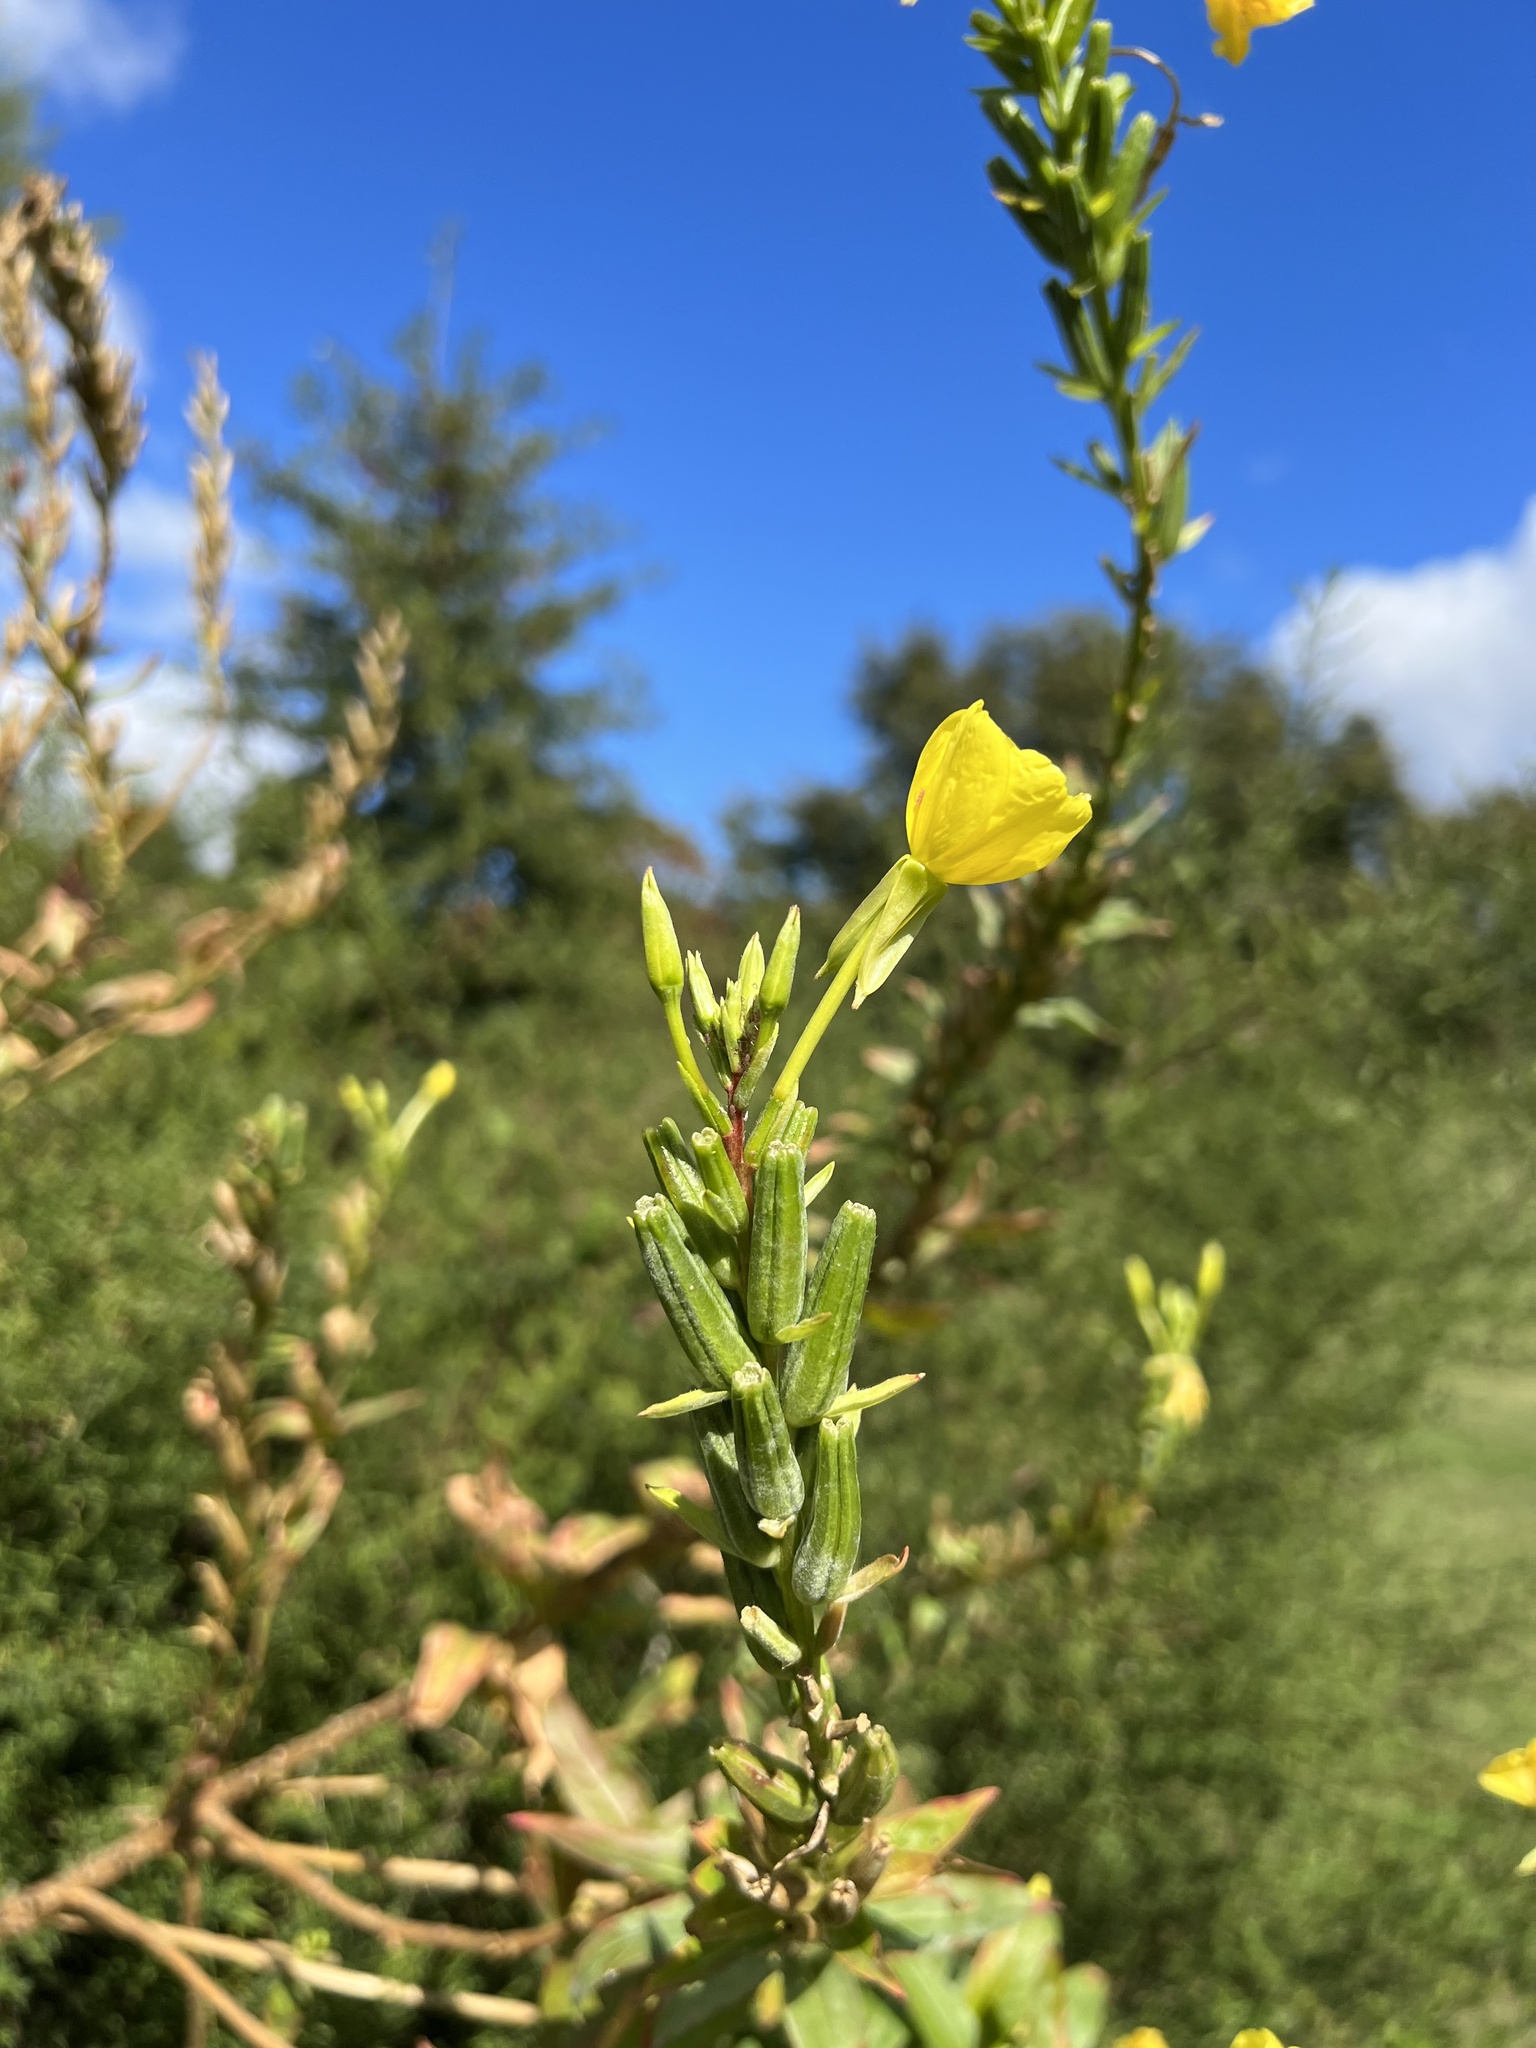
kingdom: Plantae
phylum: Tracheophyta
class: Magnoliopsida
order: Myrtales
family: Onagraceae
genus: Oenothera
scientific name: Oenothera biennis
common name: Common evening-primrose
